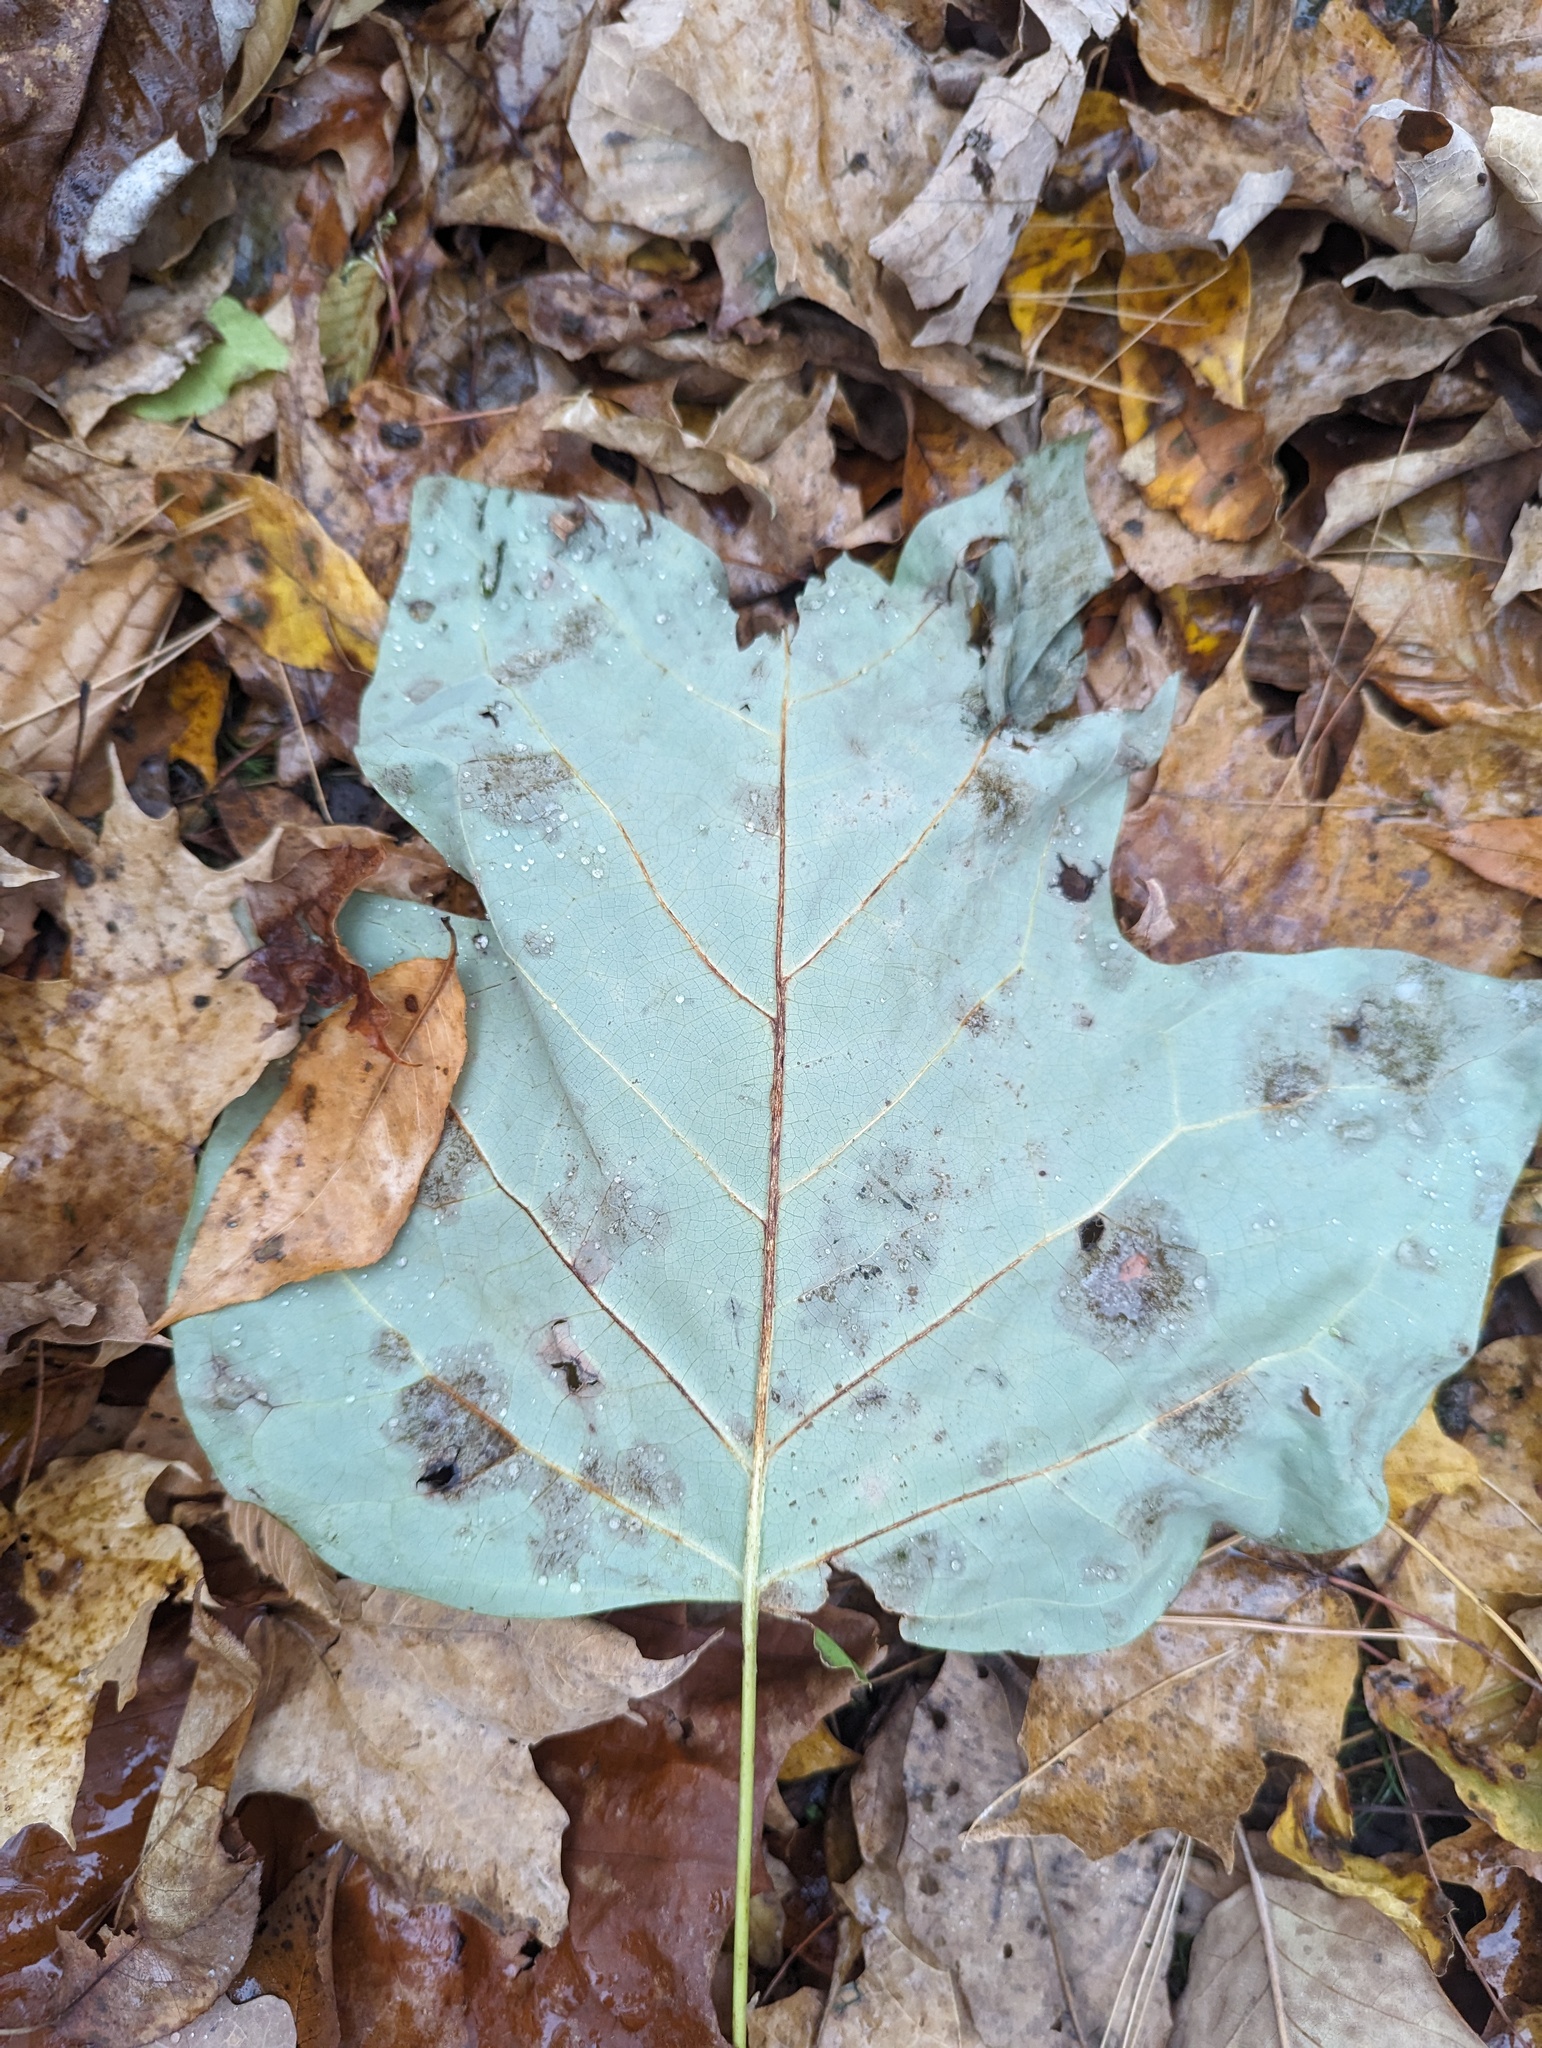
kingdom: Plantae
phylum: Tracheophyta
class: Magnoliopsida
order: Magnoliales
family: Magnoliaceae
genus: Liriodendron
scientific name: Liriodendron tulipifera
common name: Tulip tree
